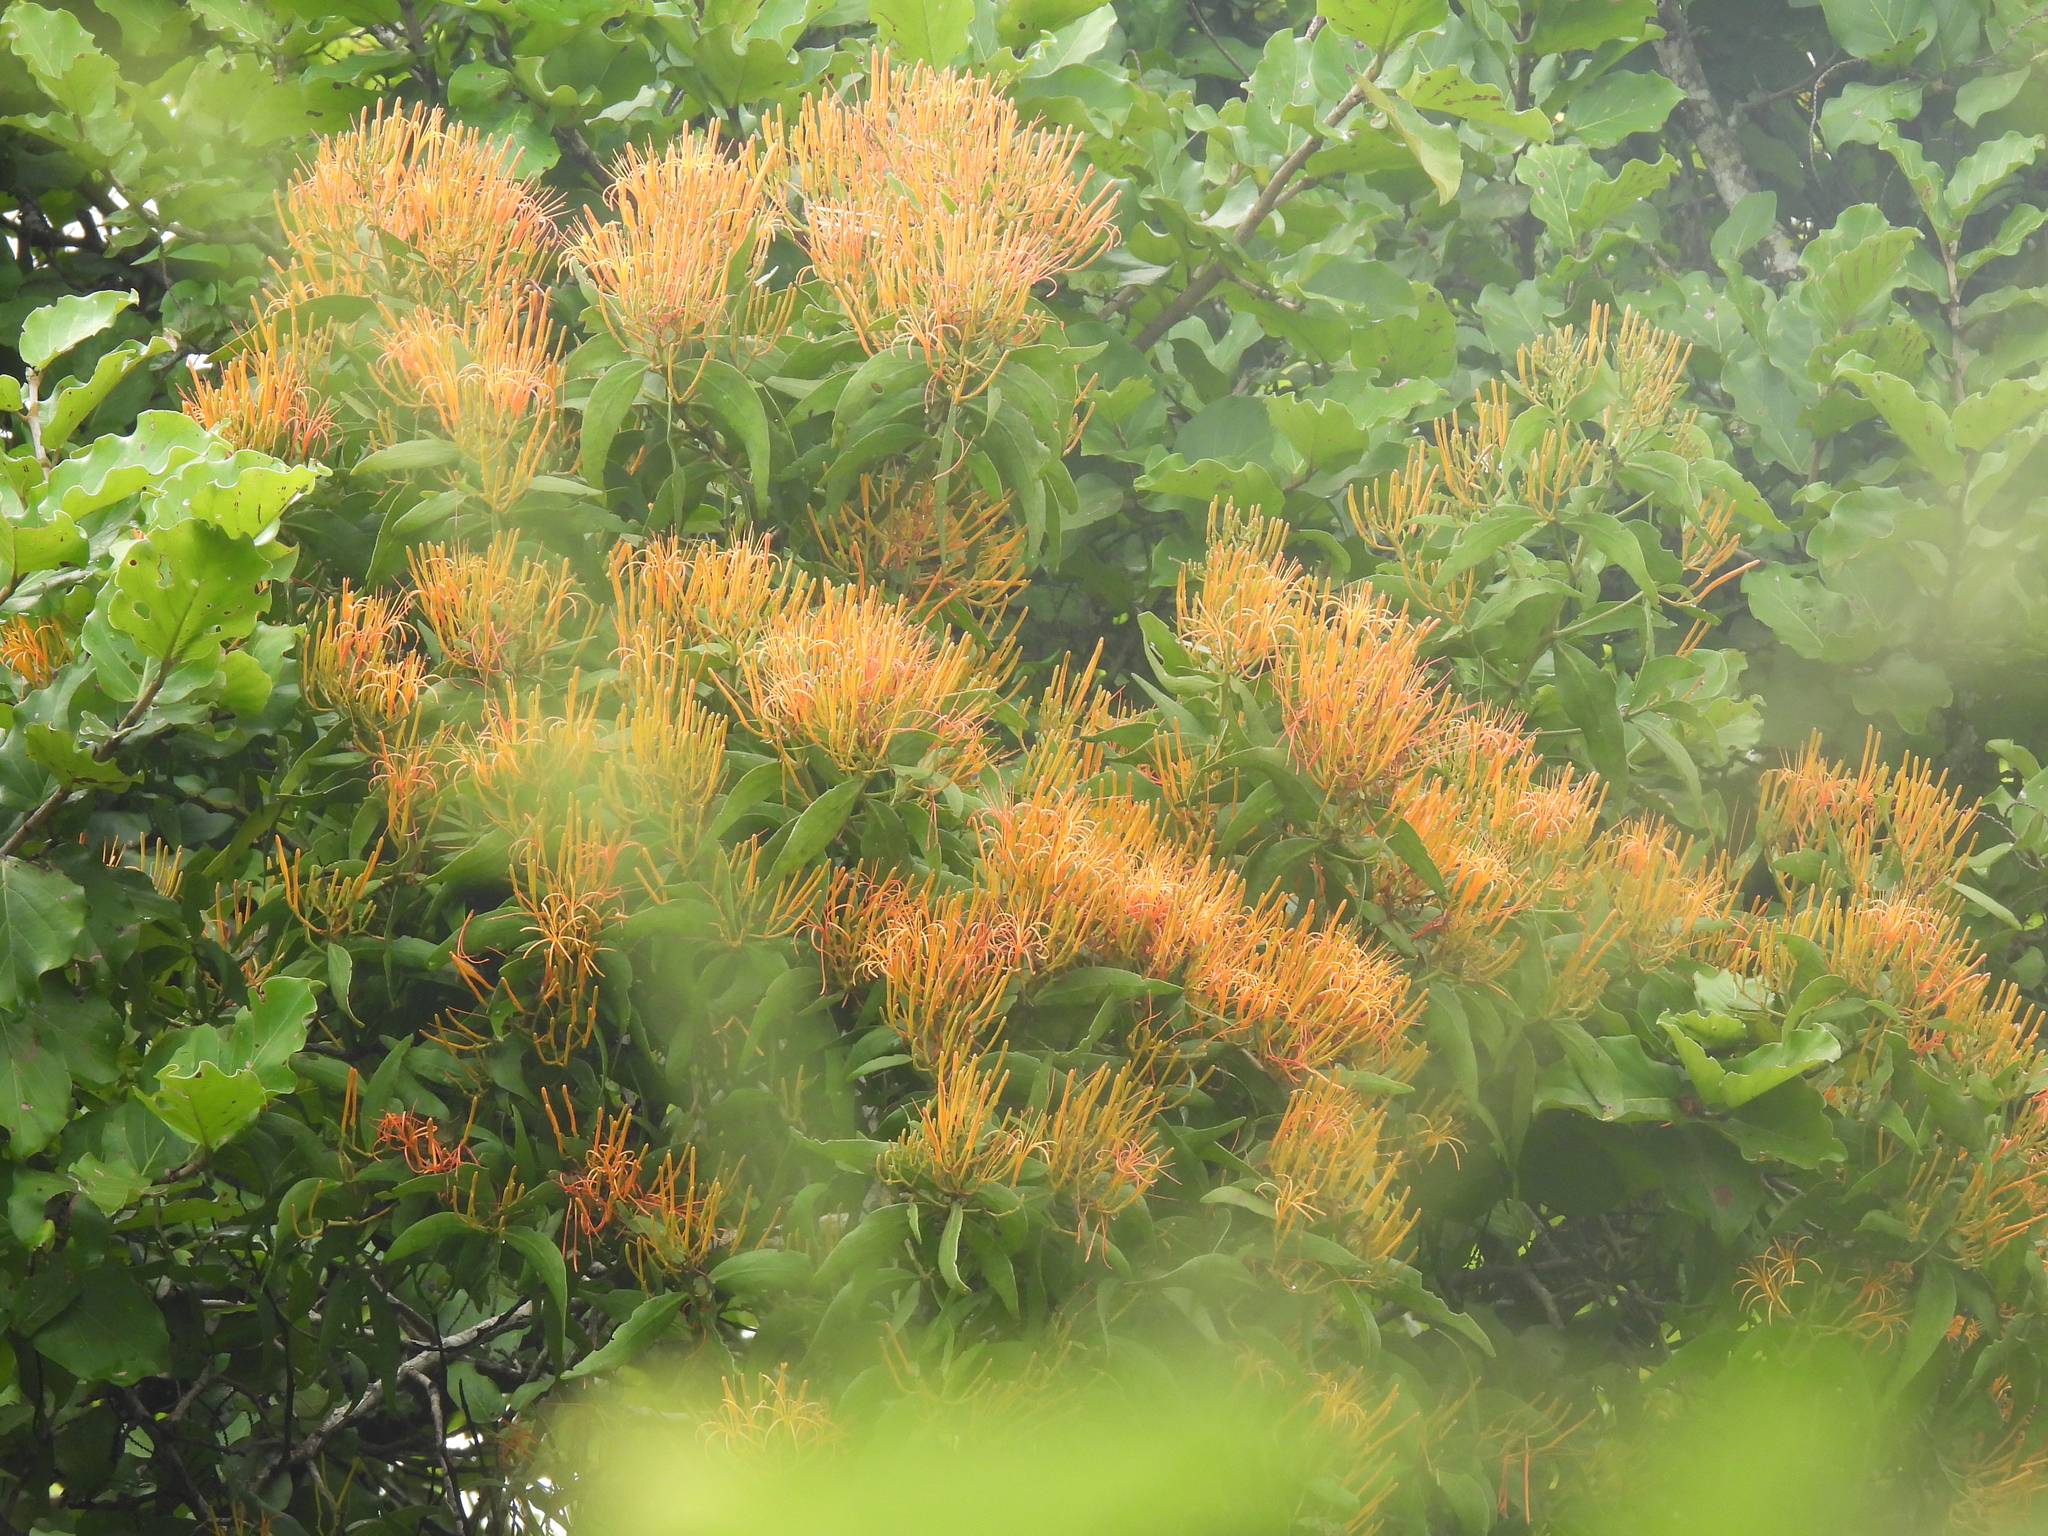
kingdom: Plantae
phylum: Tracheophyta
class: Magnoliopsida
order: Santalales
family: Loranthaceae
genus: Psittacanthus
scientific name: Psittacanthus calyculatus
